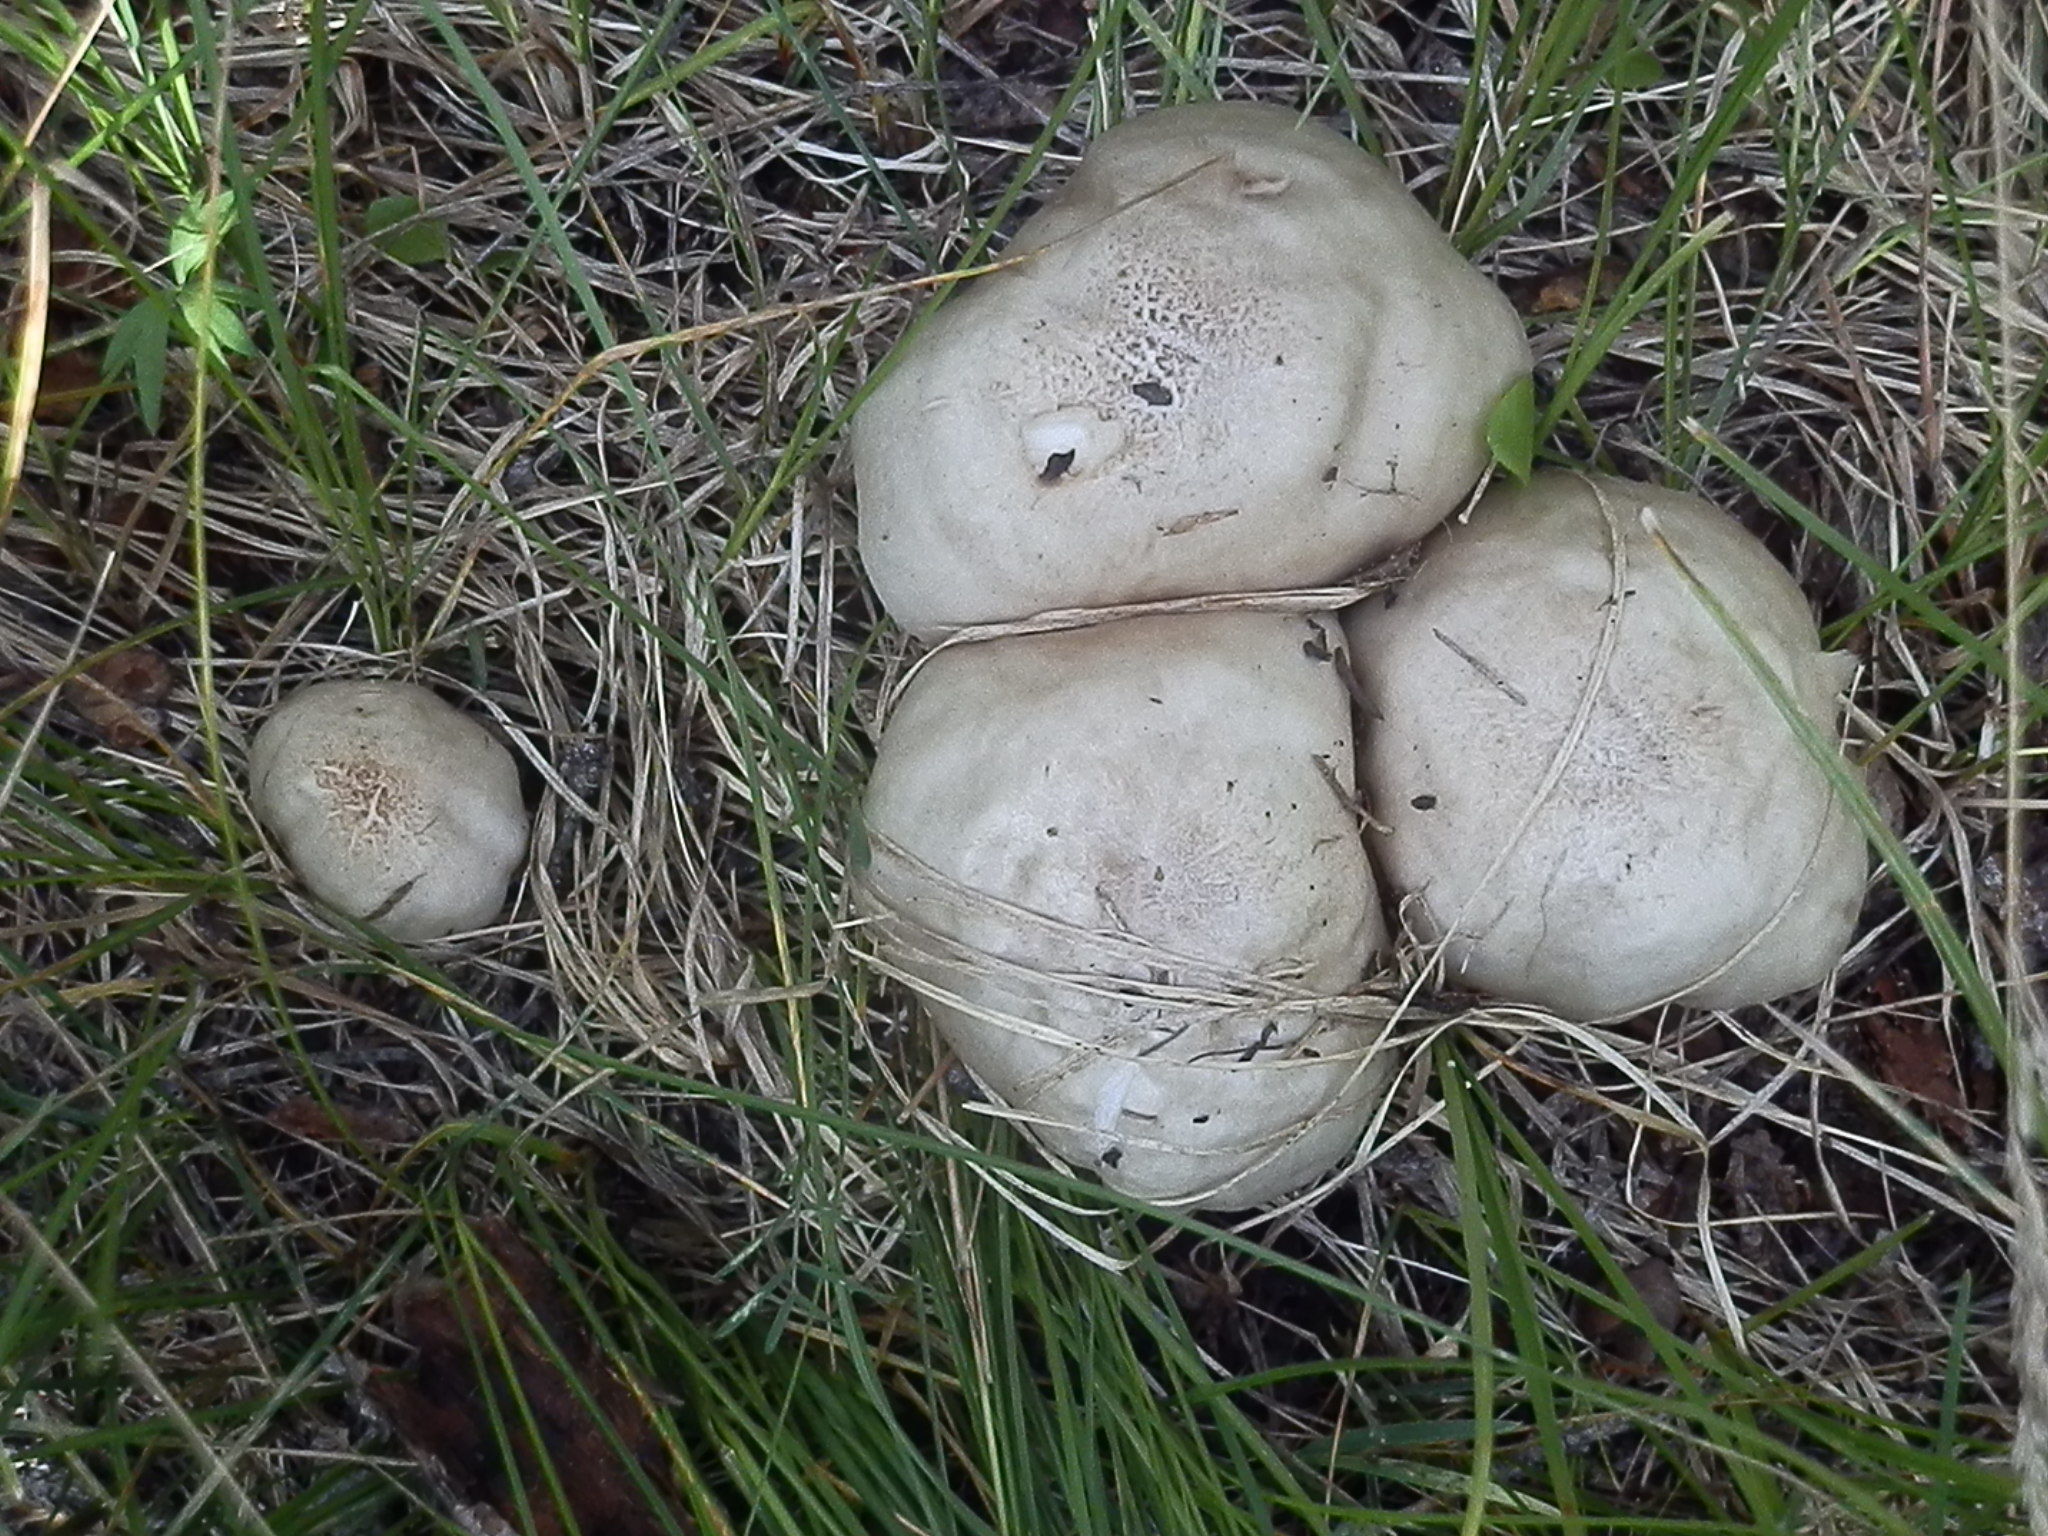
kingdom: Fungi
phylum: Basidiomycota
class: Agaricomycetes
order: Agaricales
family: Pluteaceae
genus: Pluteus
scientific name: Pluteus brunneidiscus
